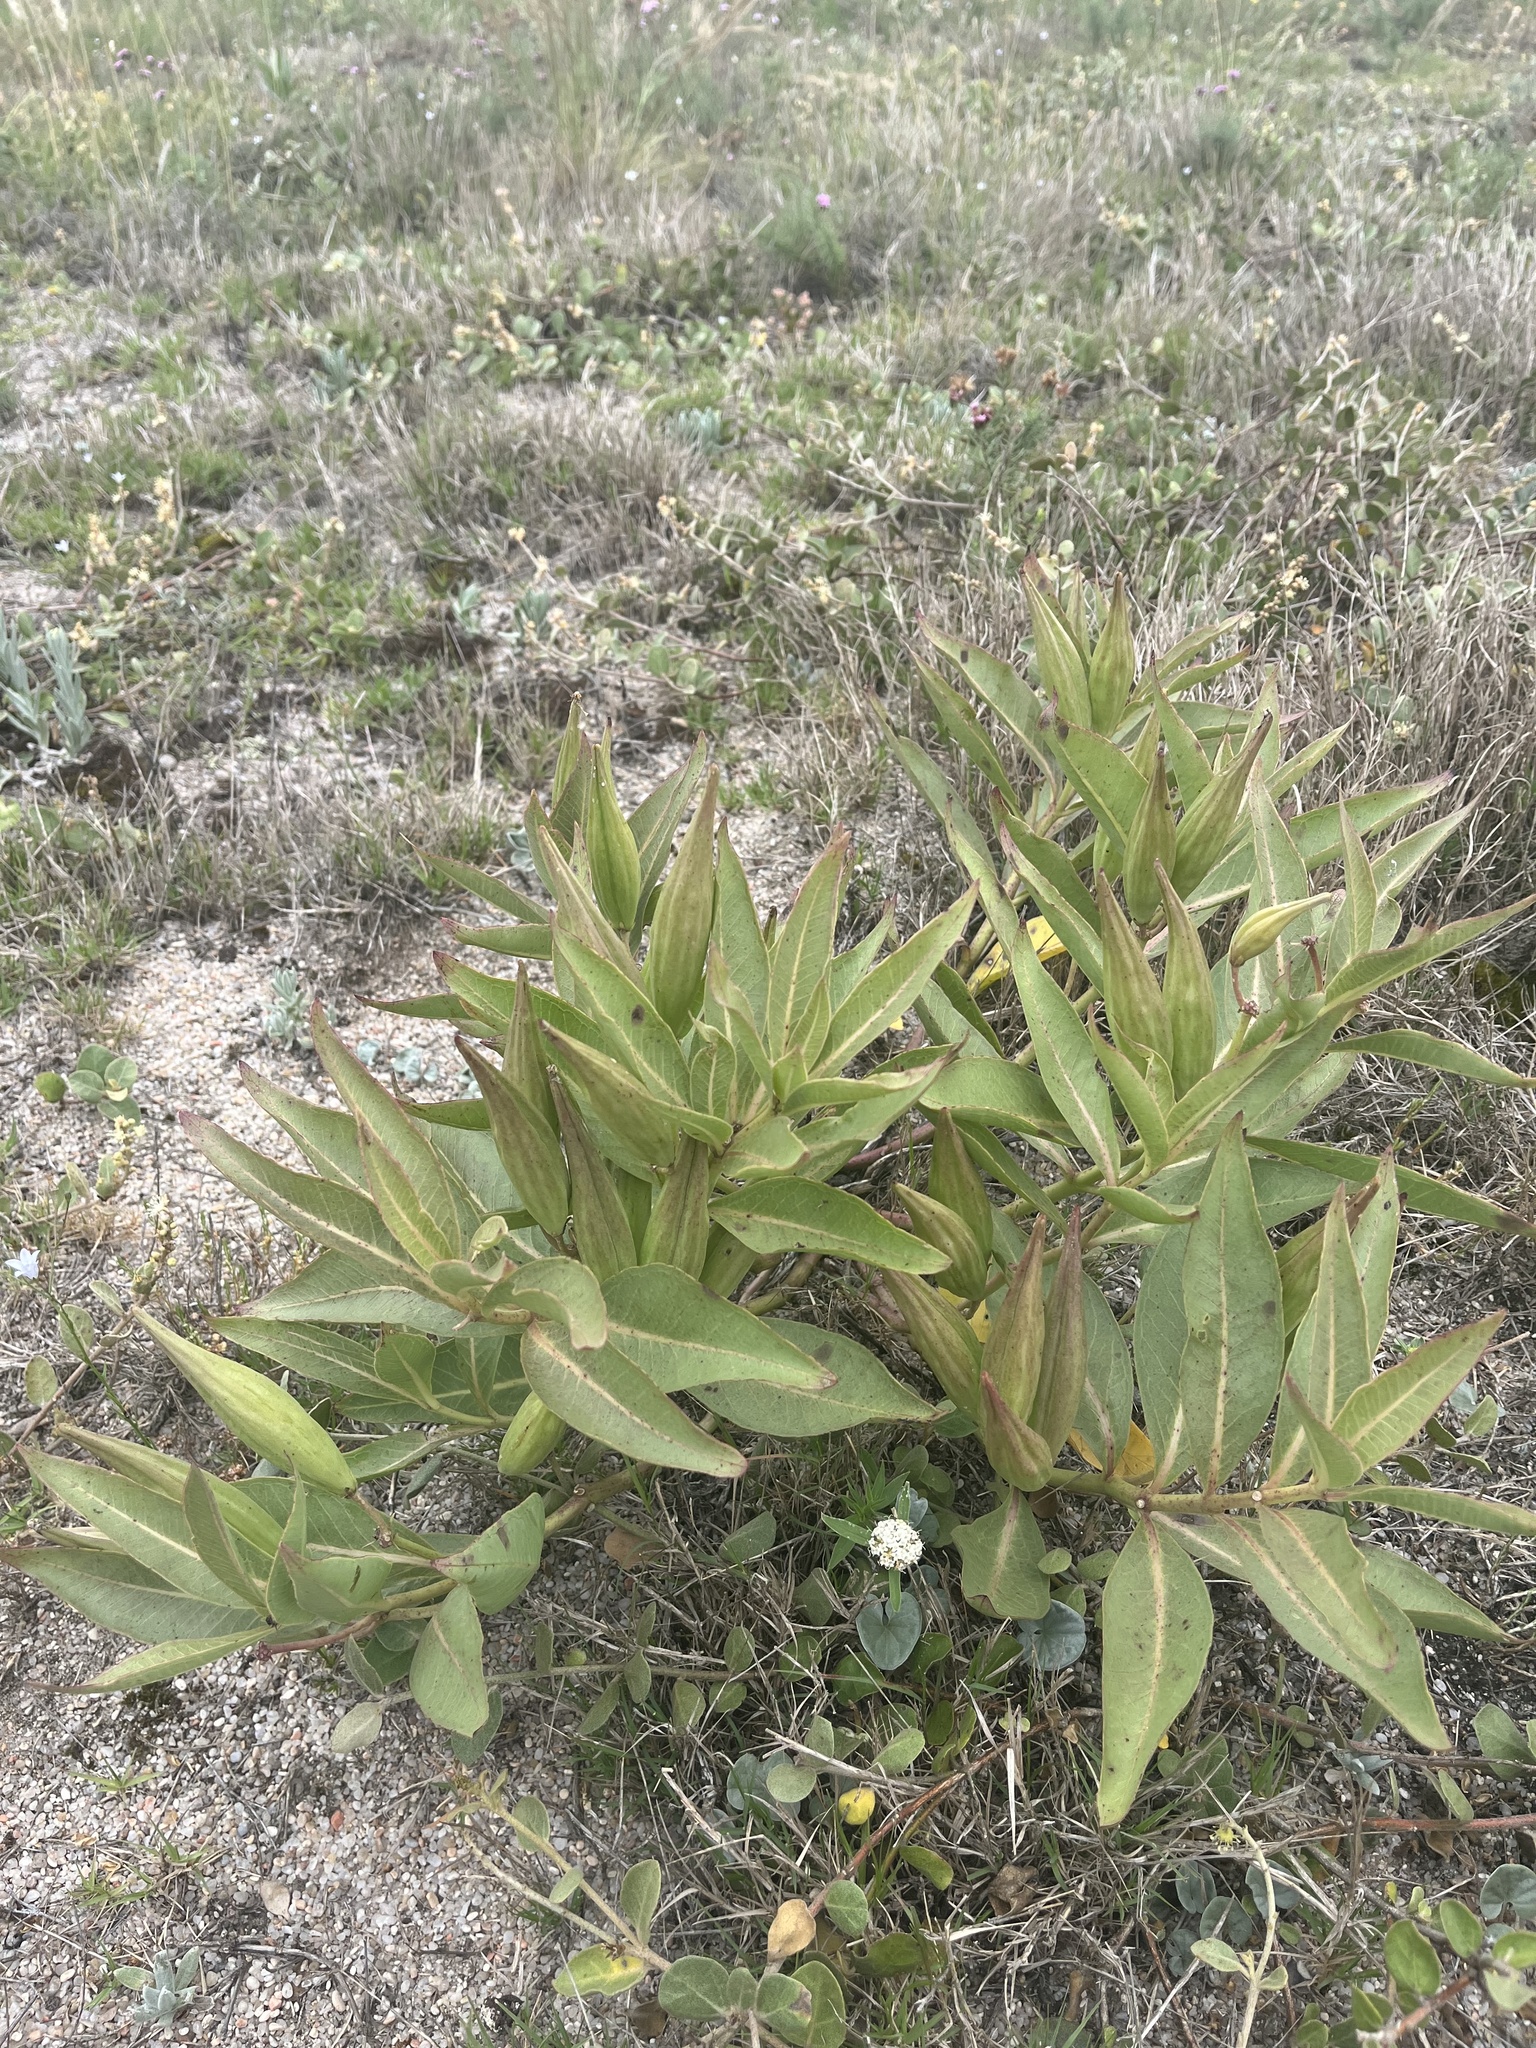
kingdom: Plantae
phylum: Tracheophyta
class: Magnoliopsida
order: Gentianales
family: Apocynaceae
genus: Asclepias
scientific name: Asclepias candida
